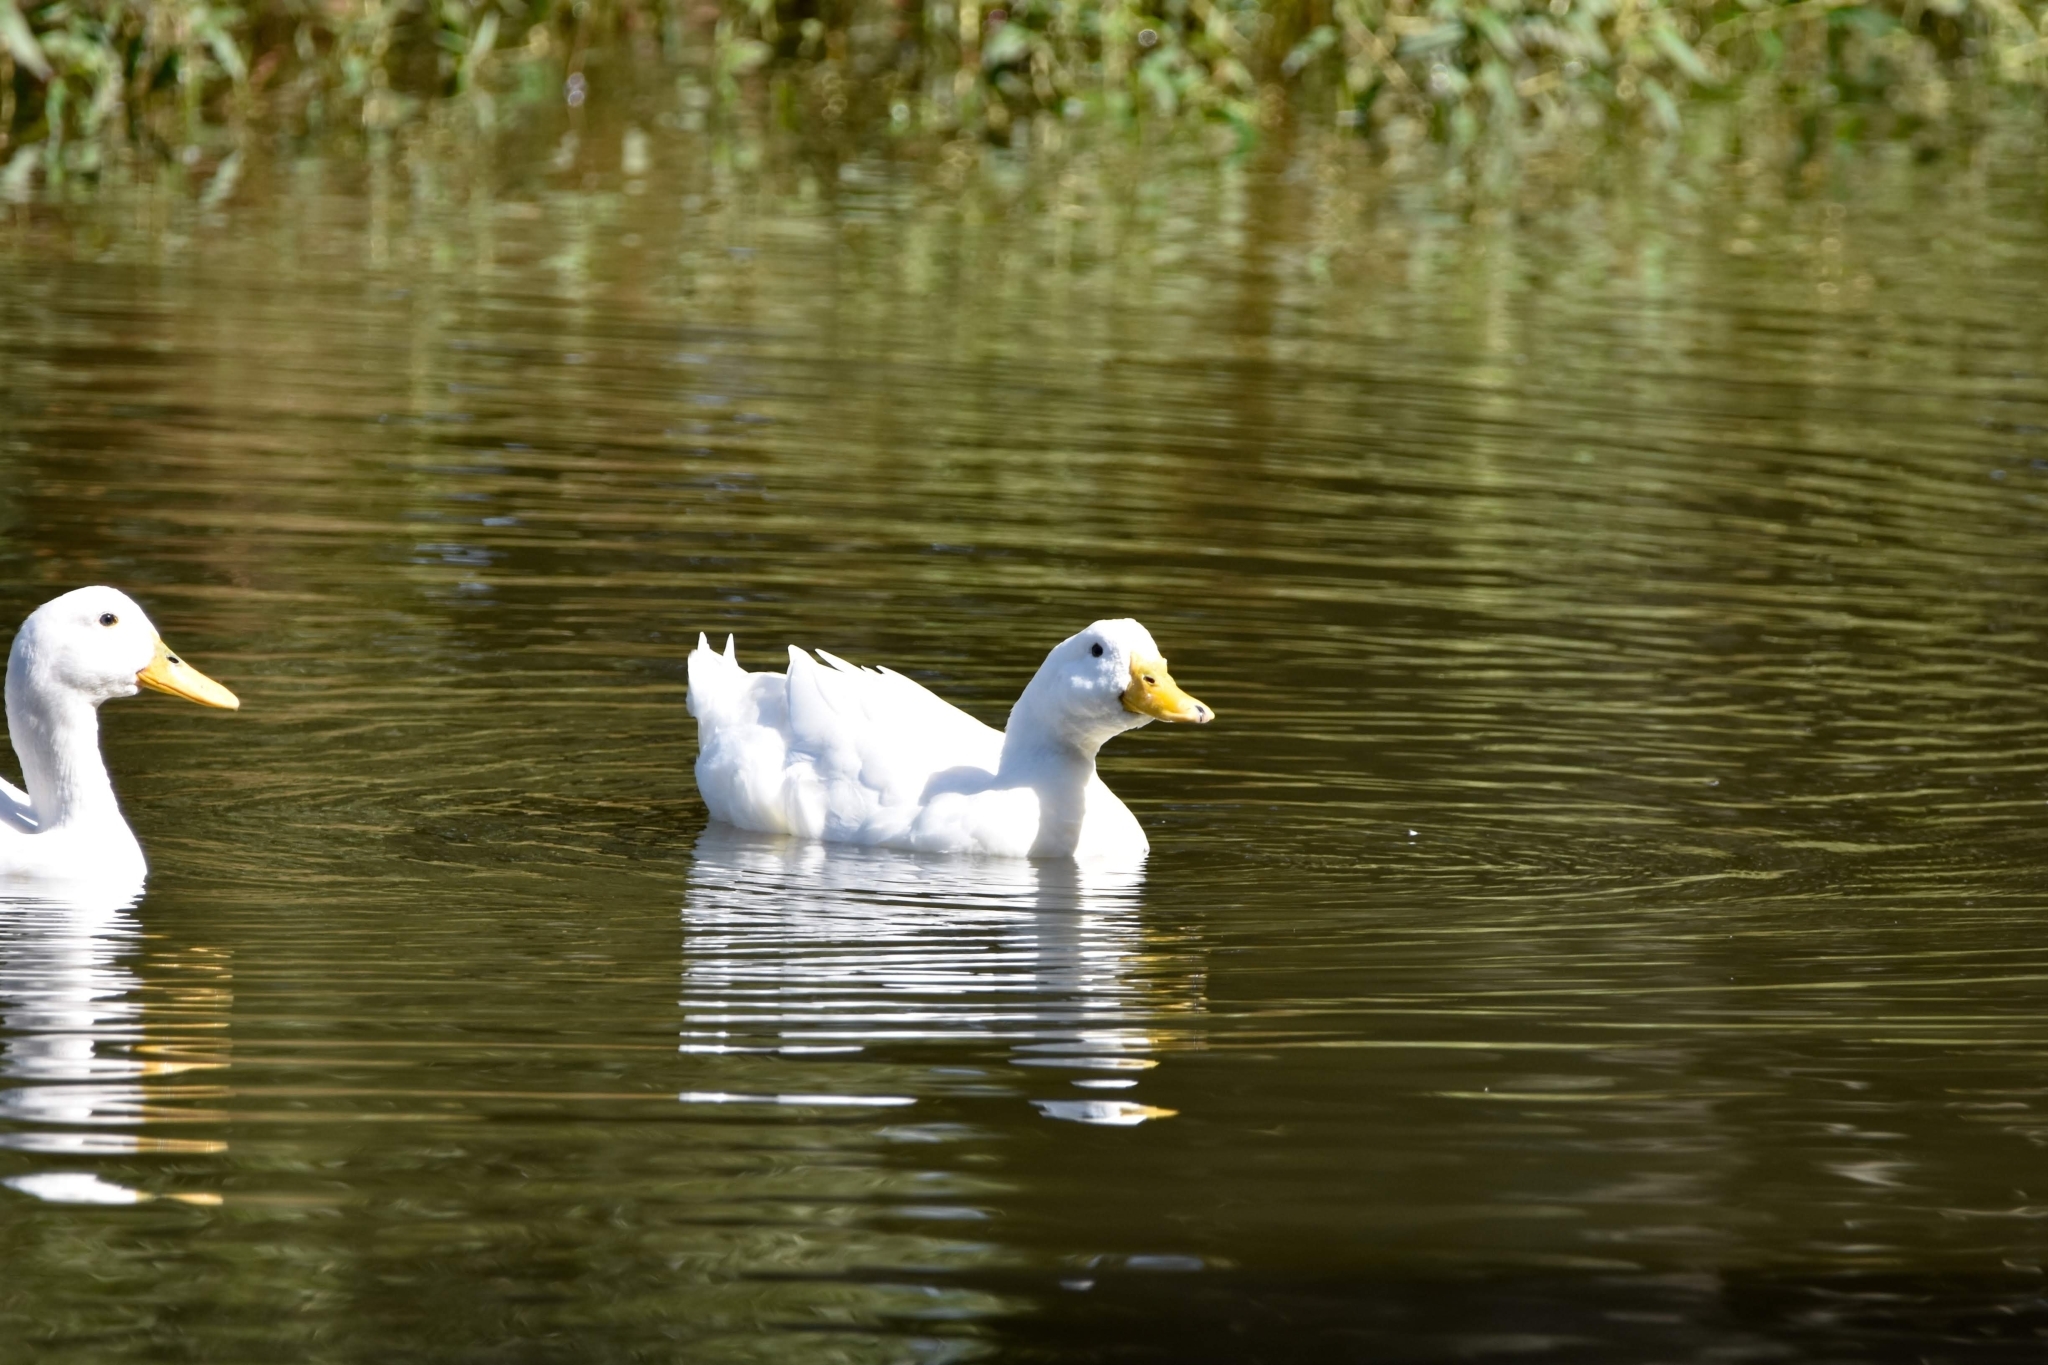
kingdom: Animalia
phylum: Chordata
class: Aves
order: Anseriformes
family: Anatidae
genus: Anas
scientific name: Anas platyrhynchos
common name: Mallard
